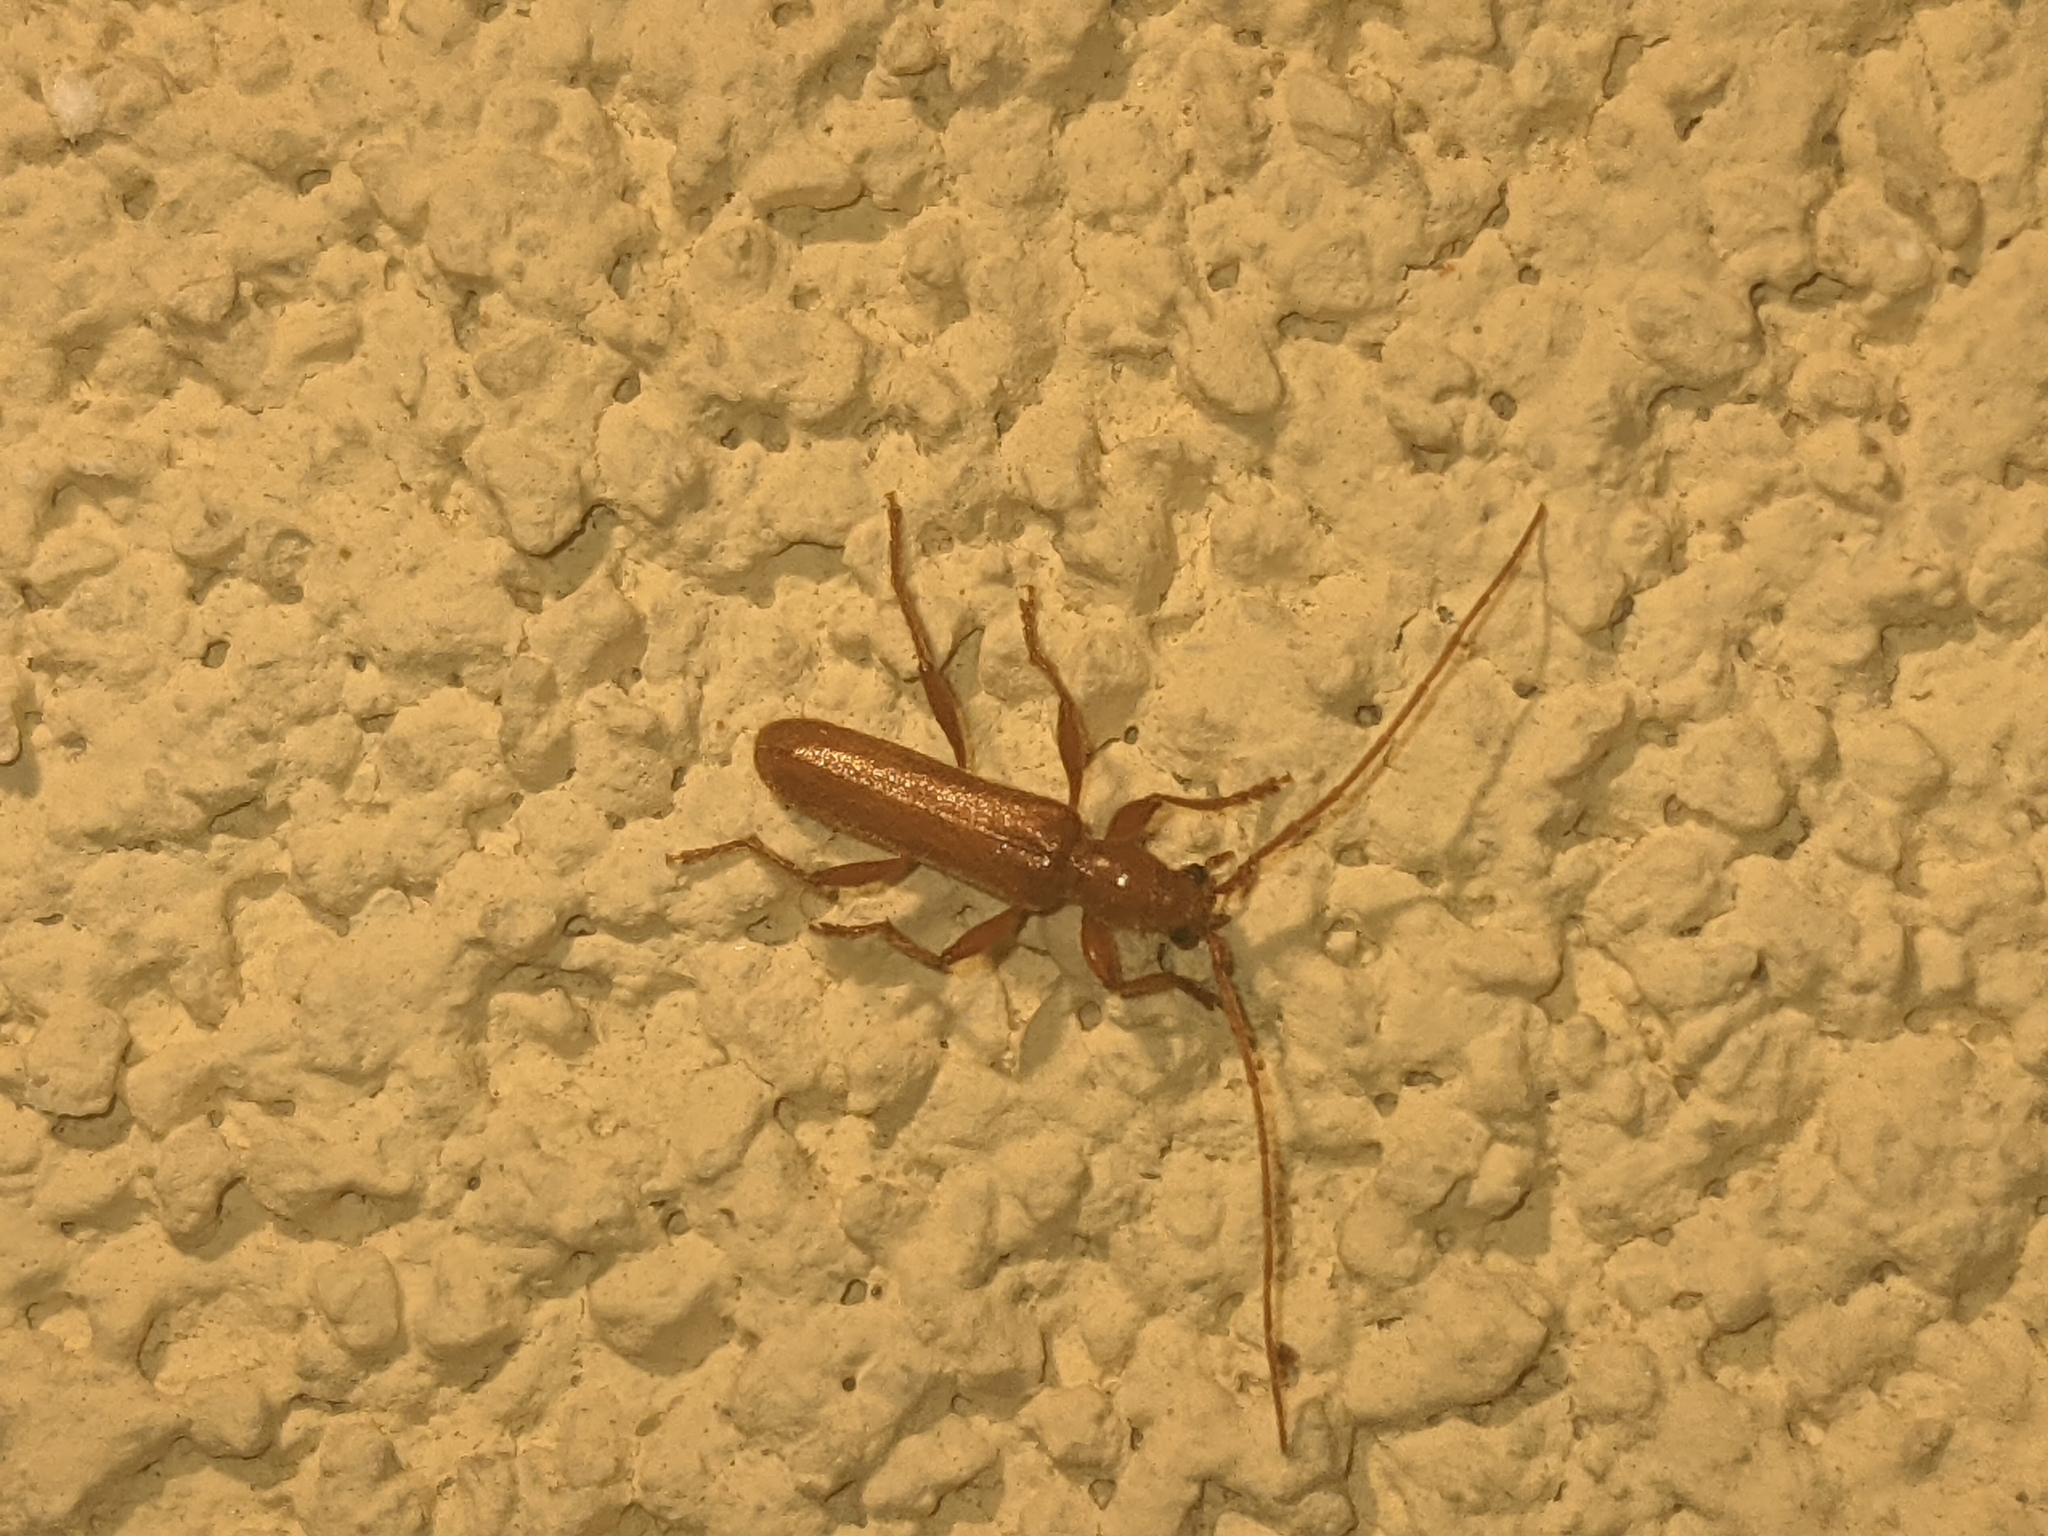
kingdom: Animalia
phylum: Arthropoda
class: Insecta
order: Coleoptera
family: Cerambycidae
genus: Axinopalpis
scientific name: Axinopalpis gracilis
